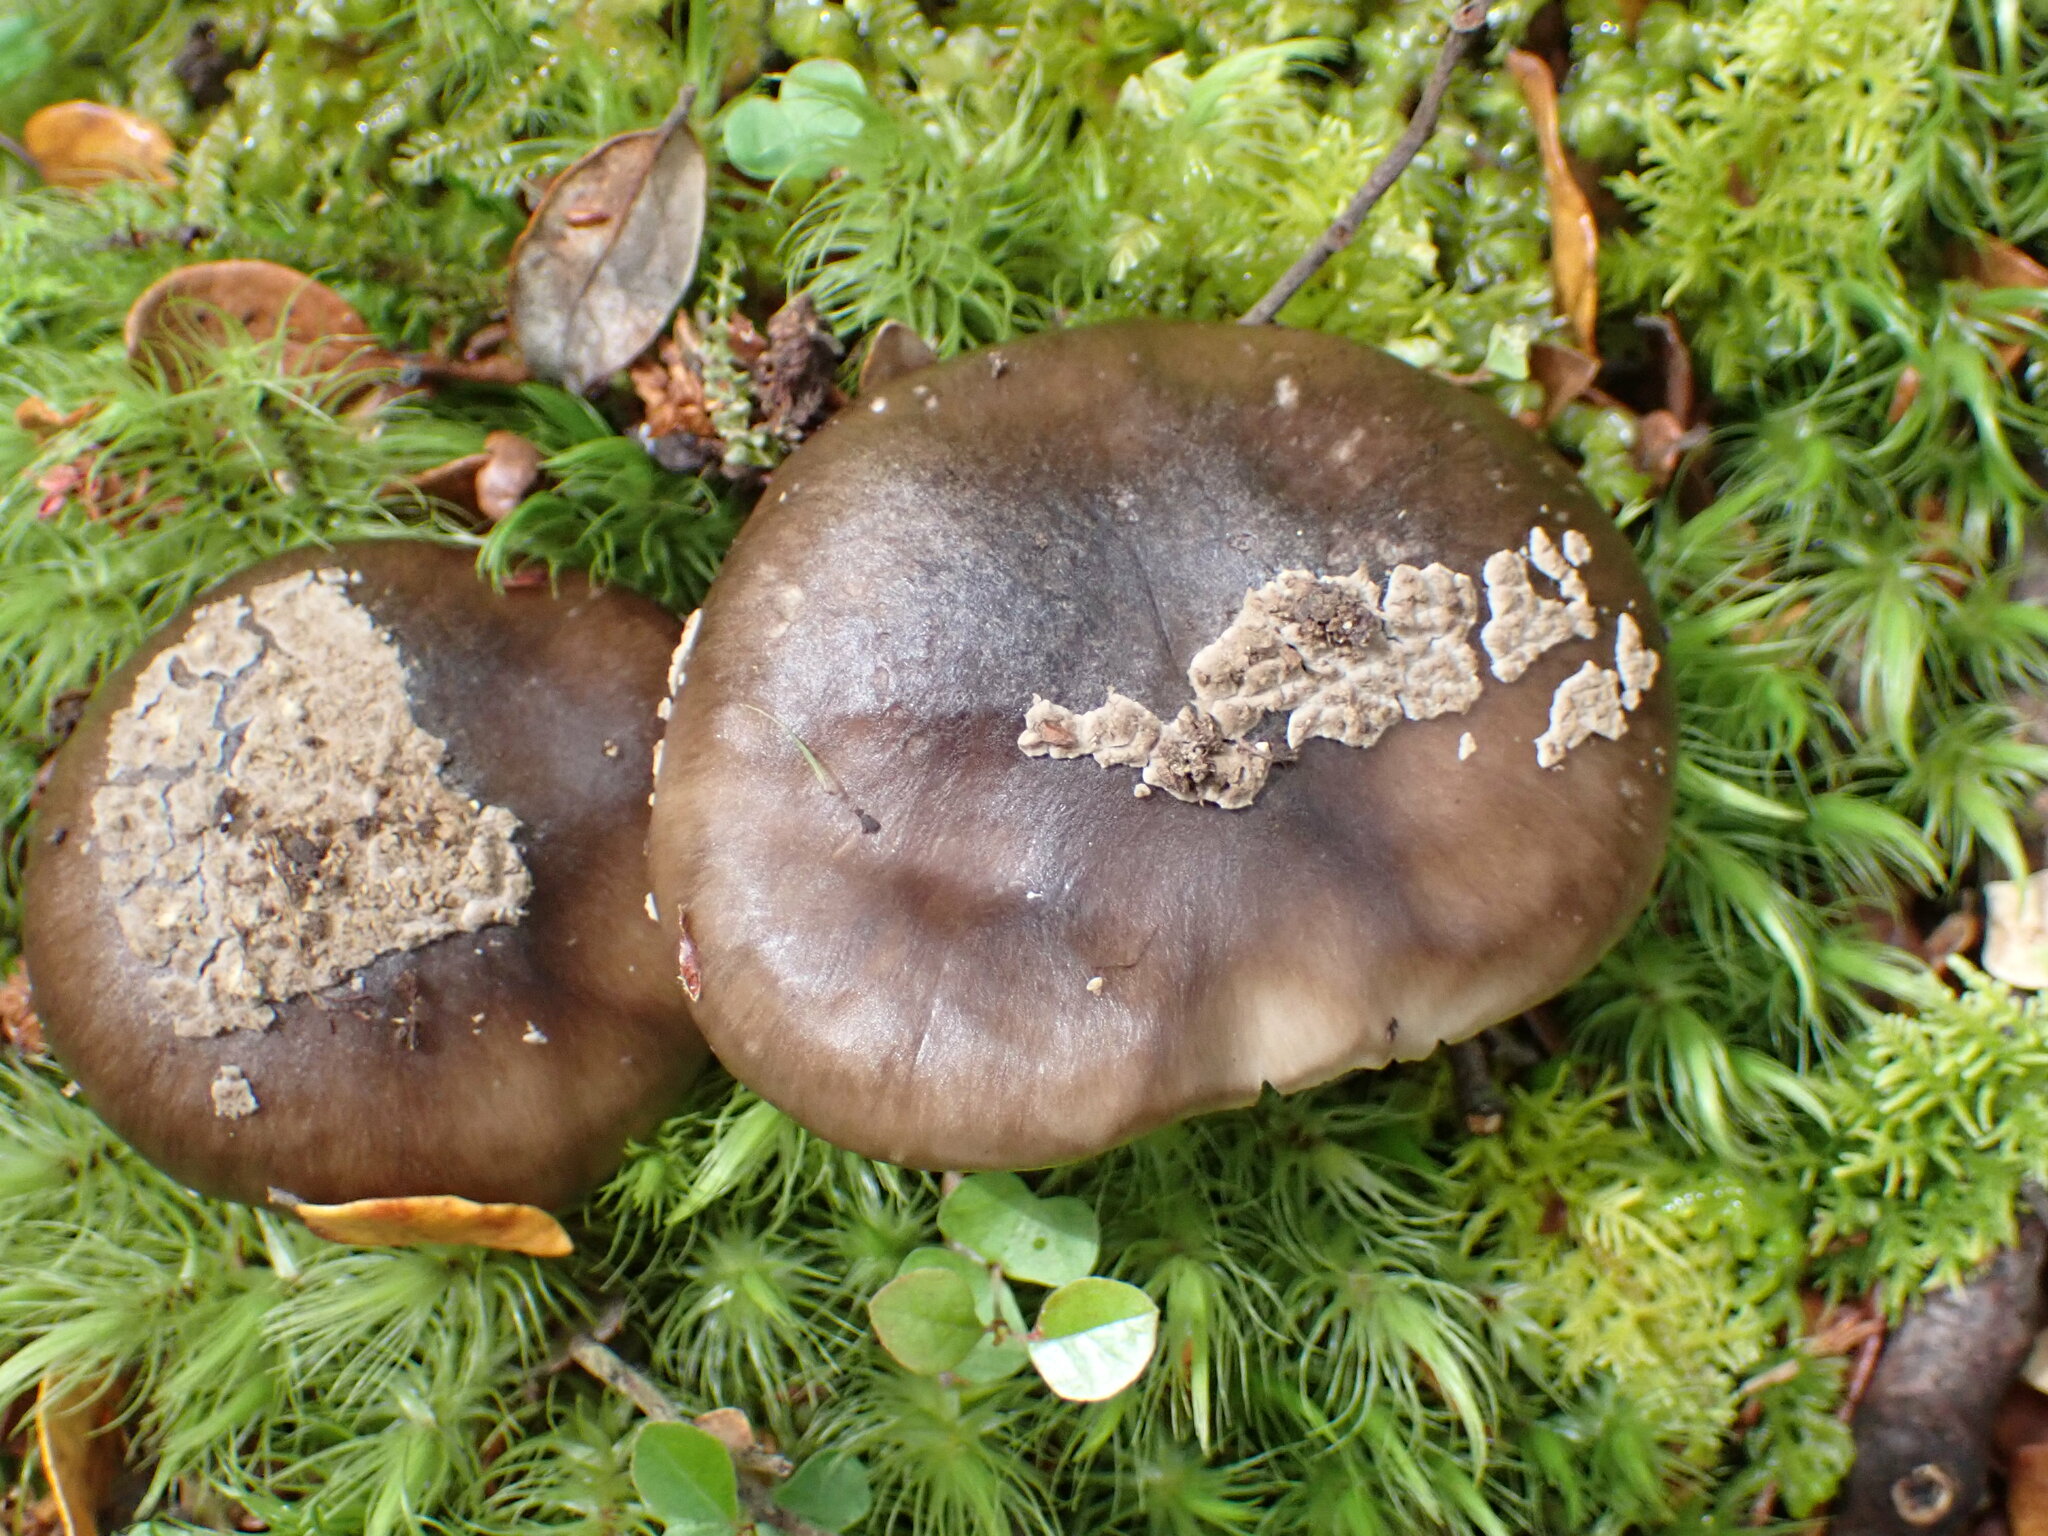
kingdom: Fungi
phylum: Basidiomycota
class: Agaricomycetes
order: Agaricales
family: Amanitaceae
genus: Amanita
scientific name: Amanita nothofagi
